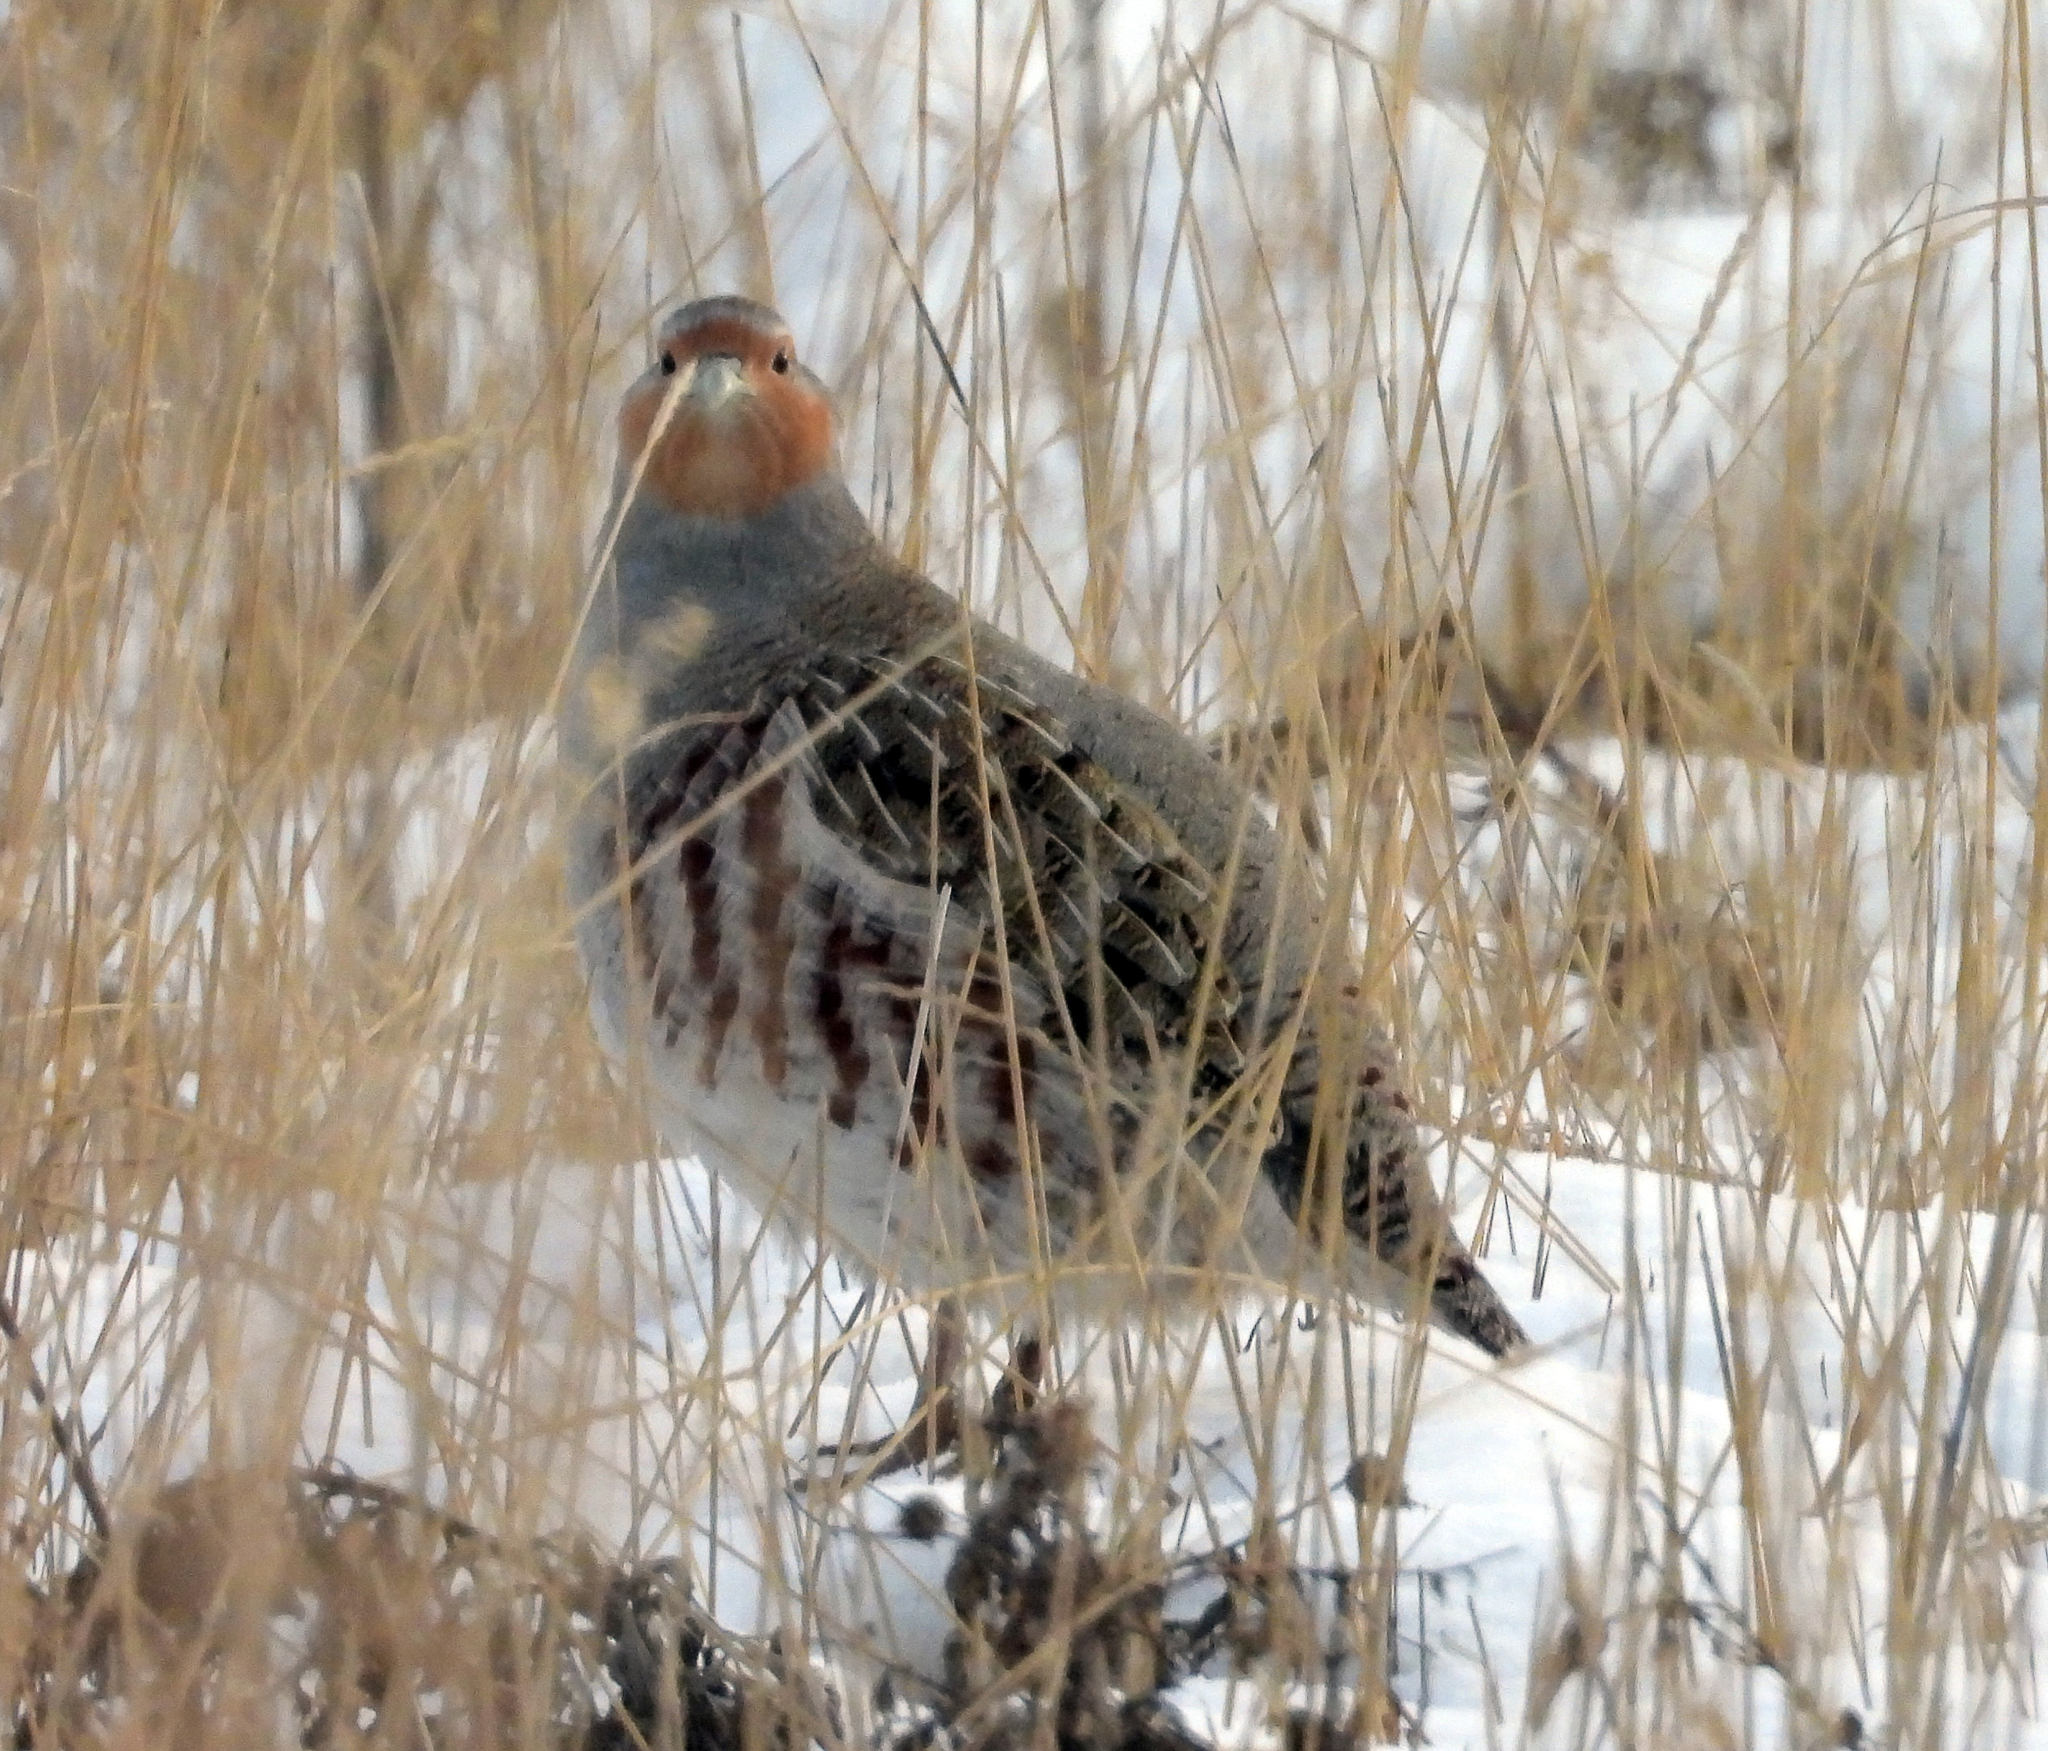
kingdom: Animalia
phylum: Chordata
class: Aves
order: Galliformes
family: Phasianidae
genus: Perdix
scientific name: Perdix perdix
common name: Grey partridge
